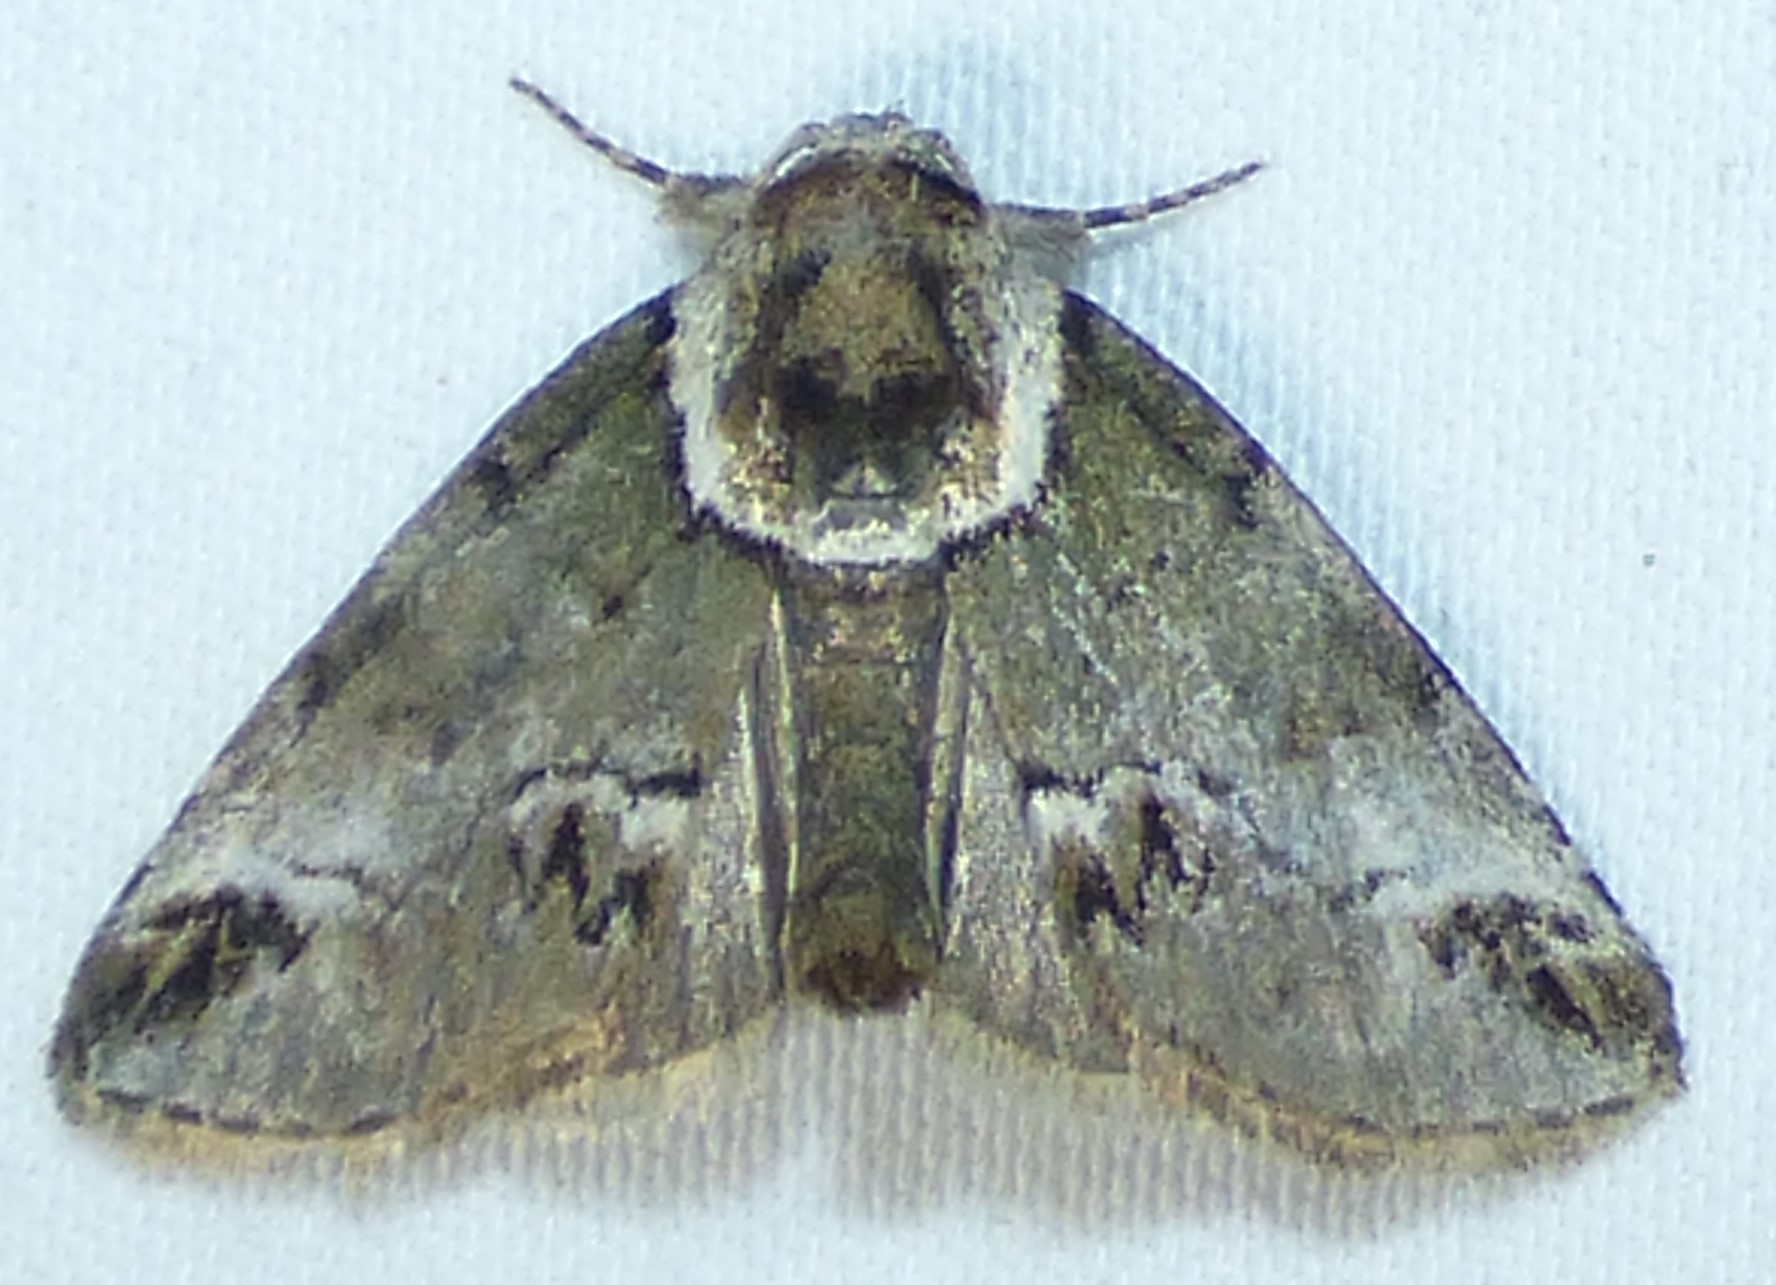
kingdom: Animalia
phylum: Arthropoda
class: Insecta
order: Lepidoptera
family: Nolidae
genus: Baileya
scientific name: Baileya australis
